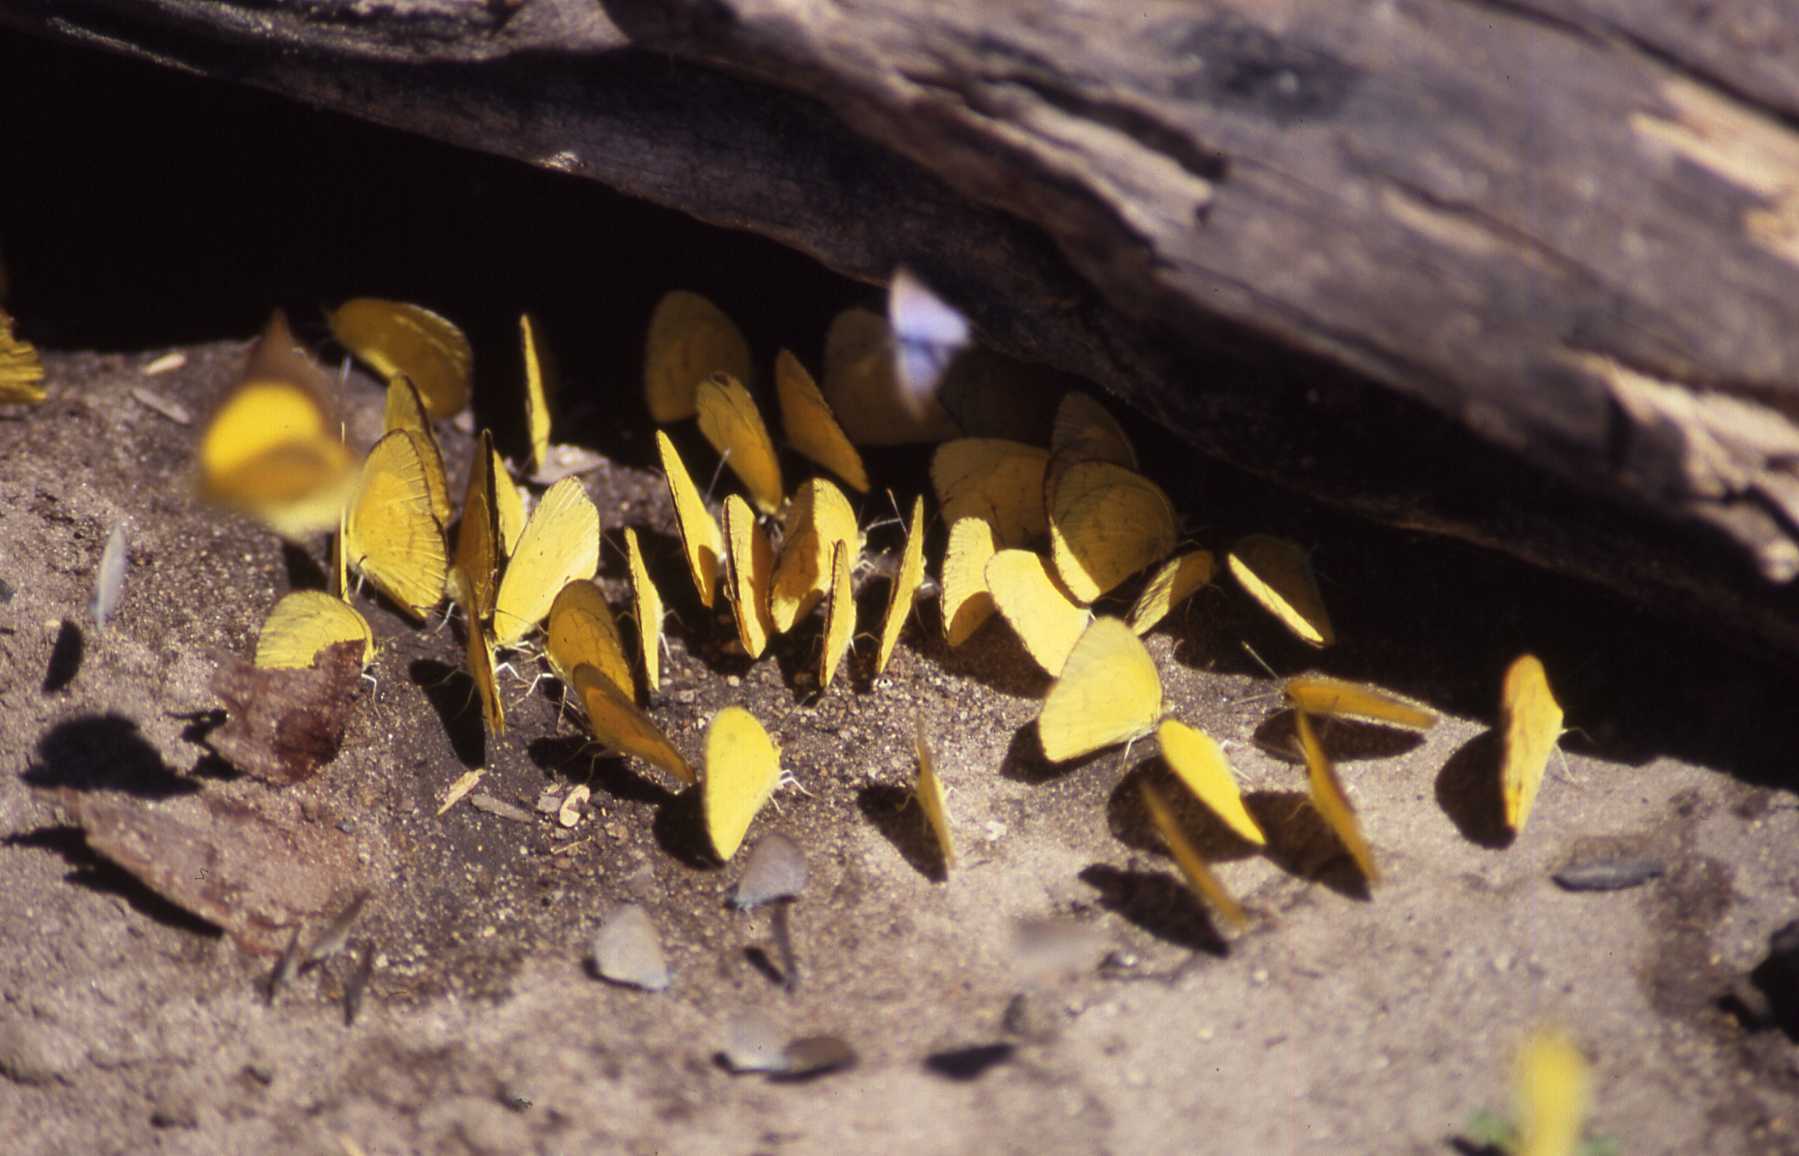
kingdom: Animalia
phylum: Arthropoda
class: Insecta
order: Lepidoptera
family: Pieridae
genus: Eurema
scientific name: Eurema brigitta
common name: Small grass yellow
